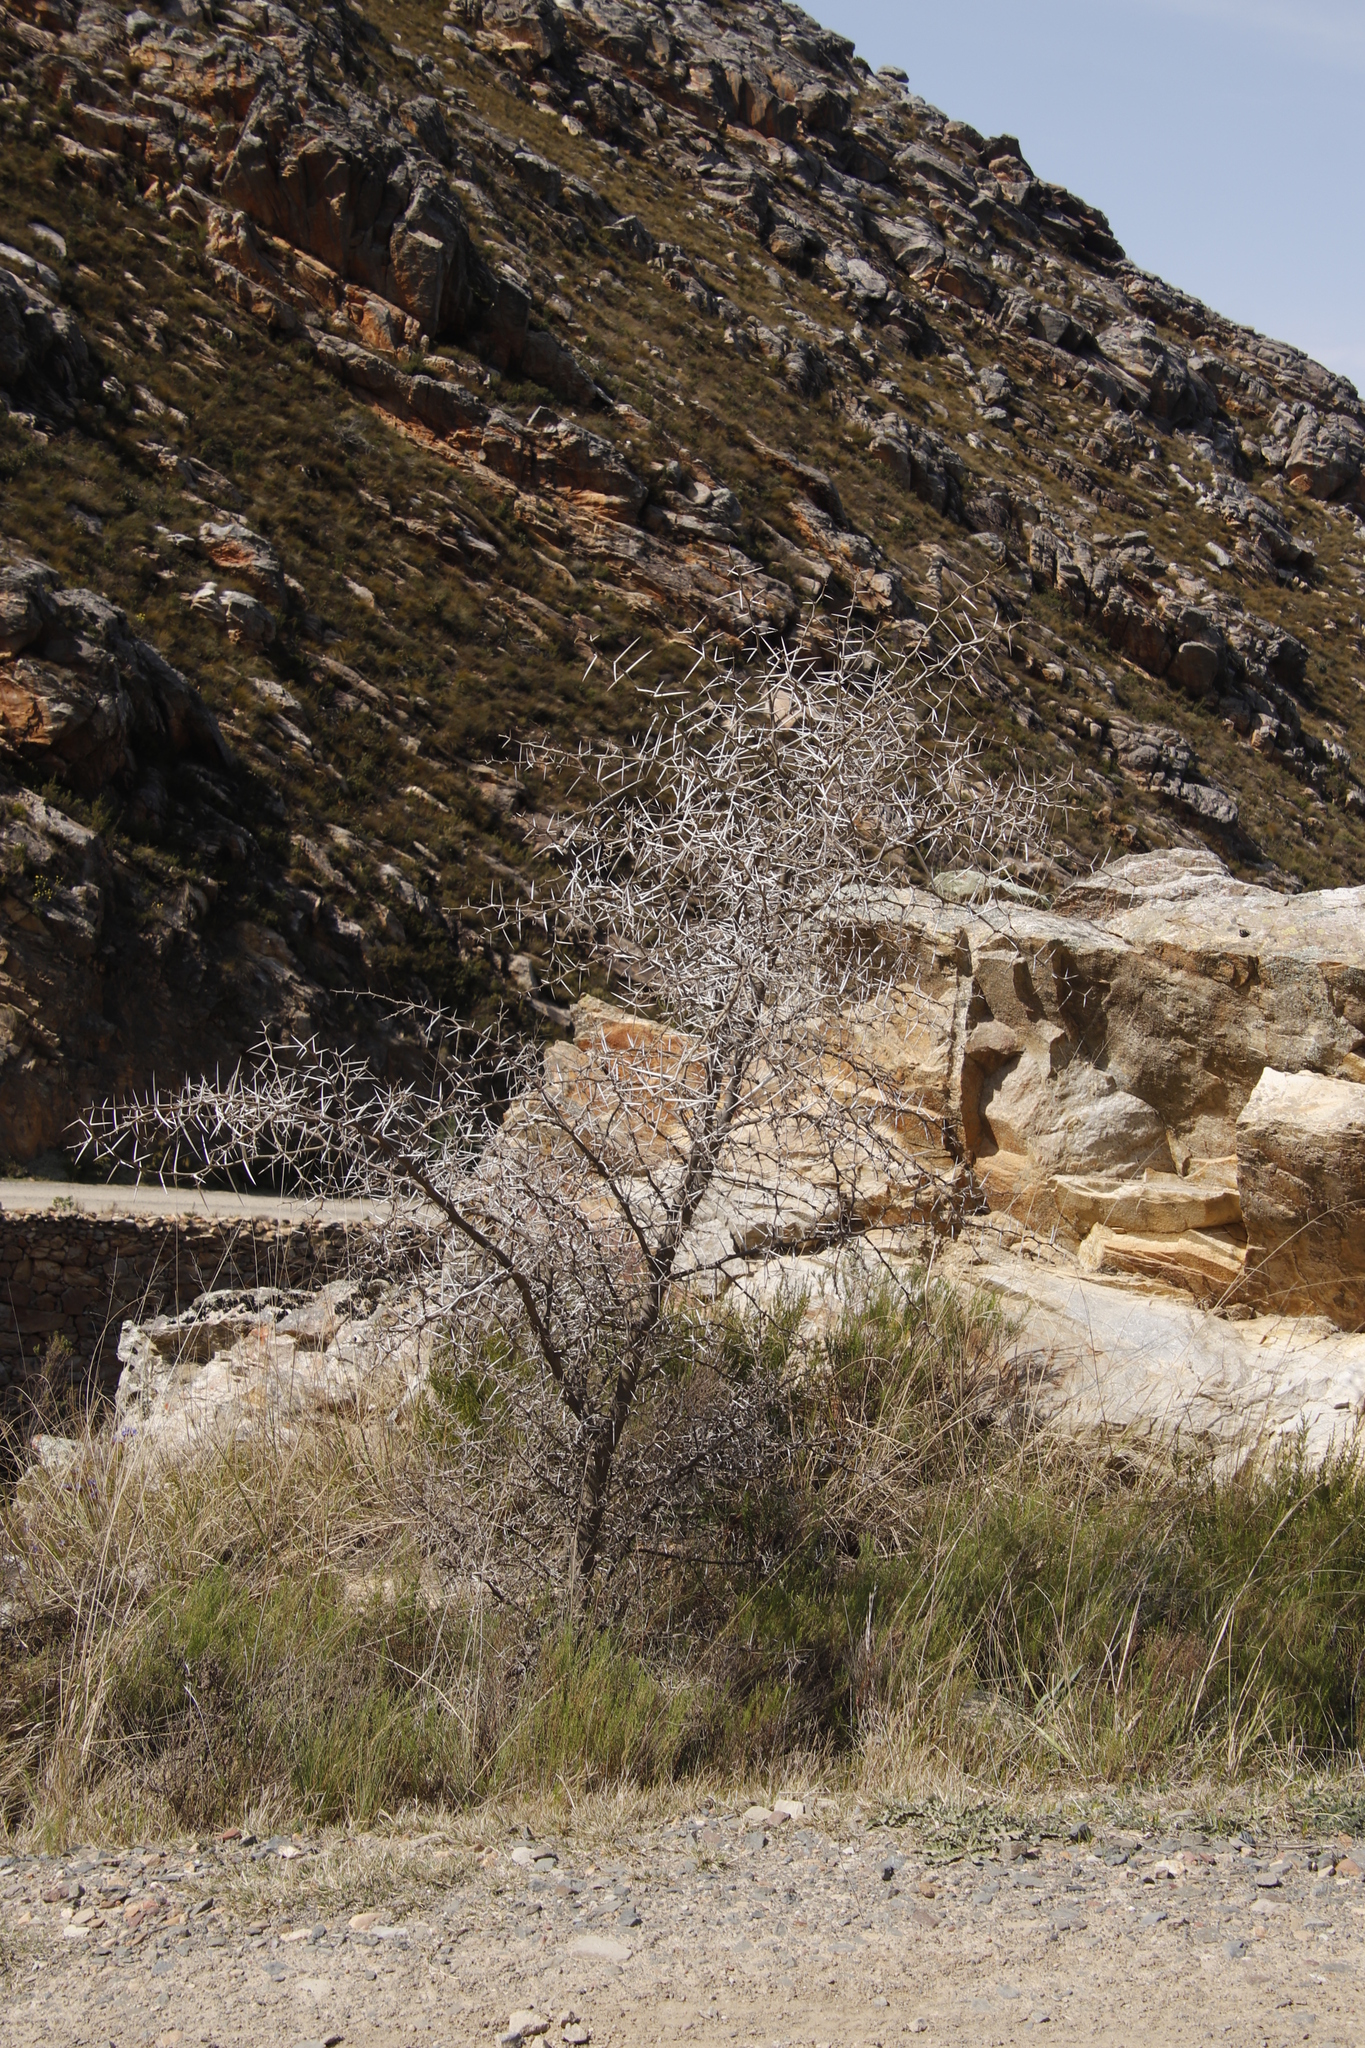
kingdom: Plantae
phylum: Tracheophyta
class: Magnoliopsida
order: Fabales
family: Fabaceae
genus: Vachellia
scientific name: Vachellia karroo
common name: Sweet thorn
